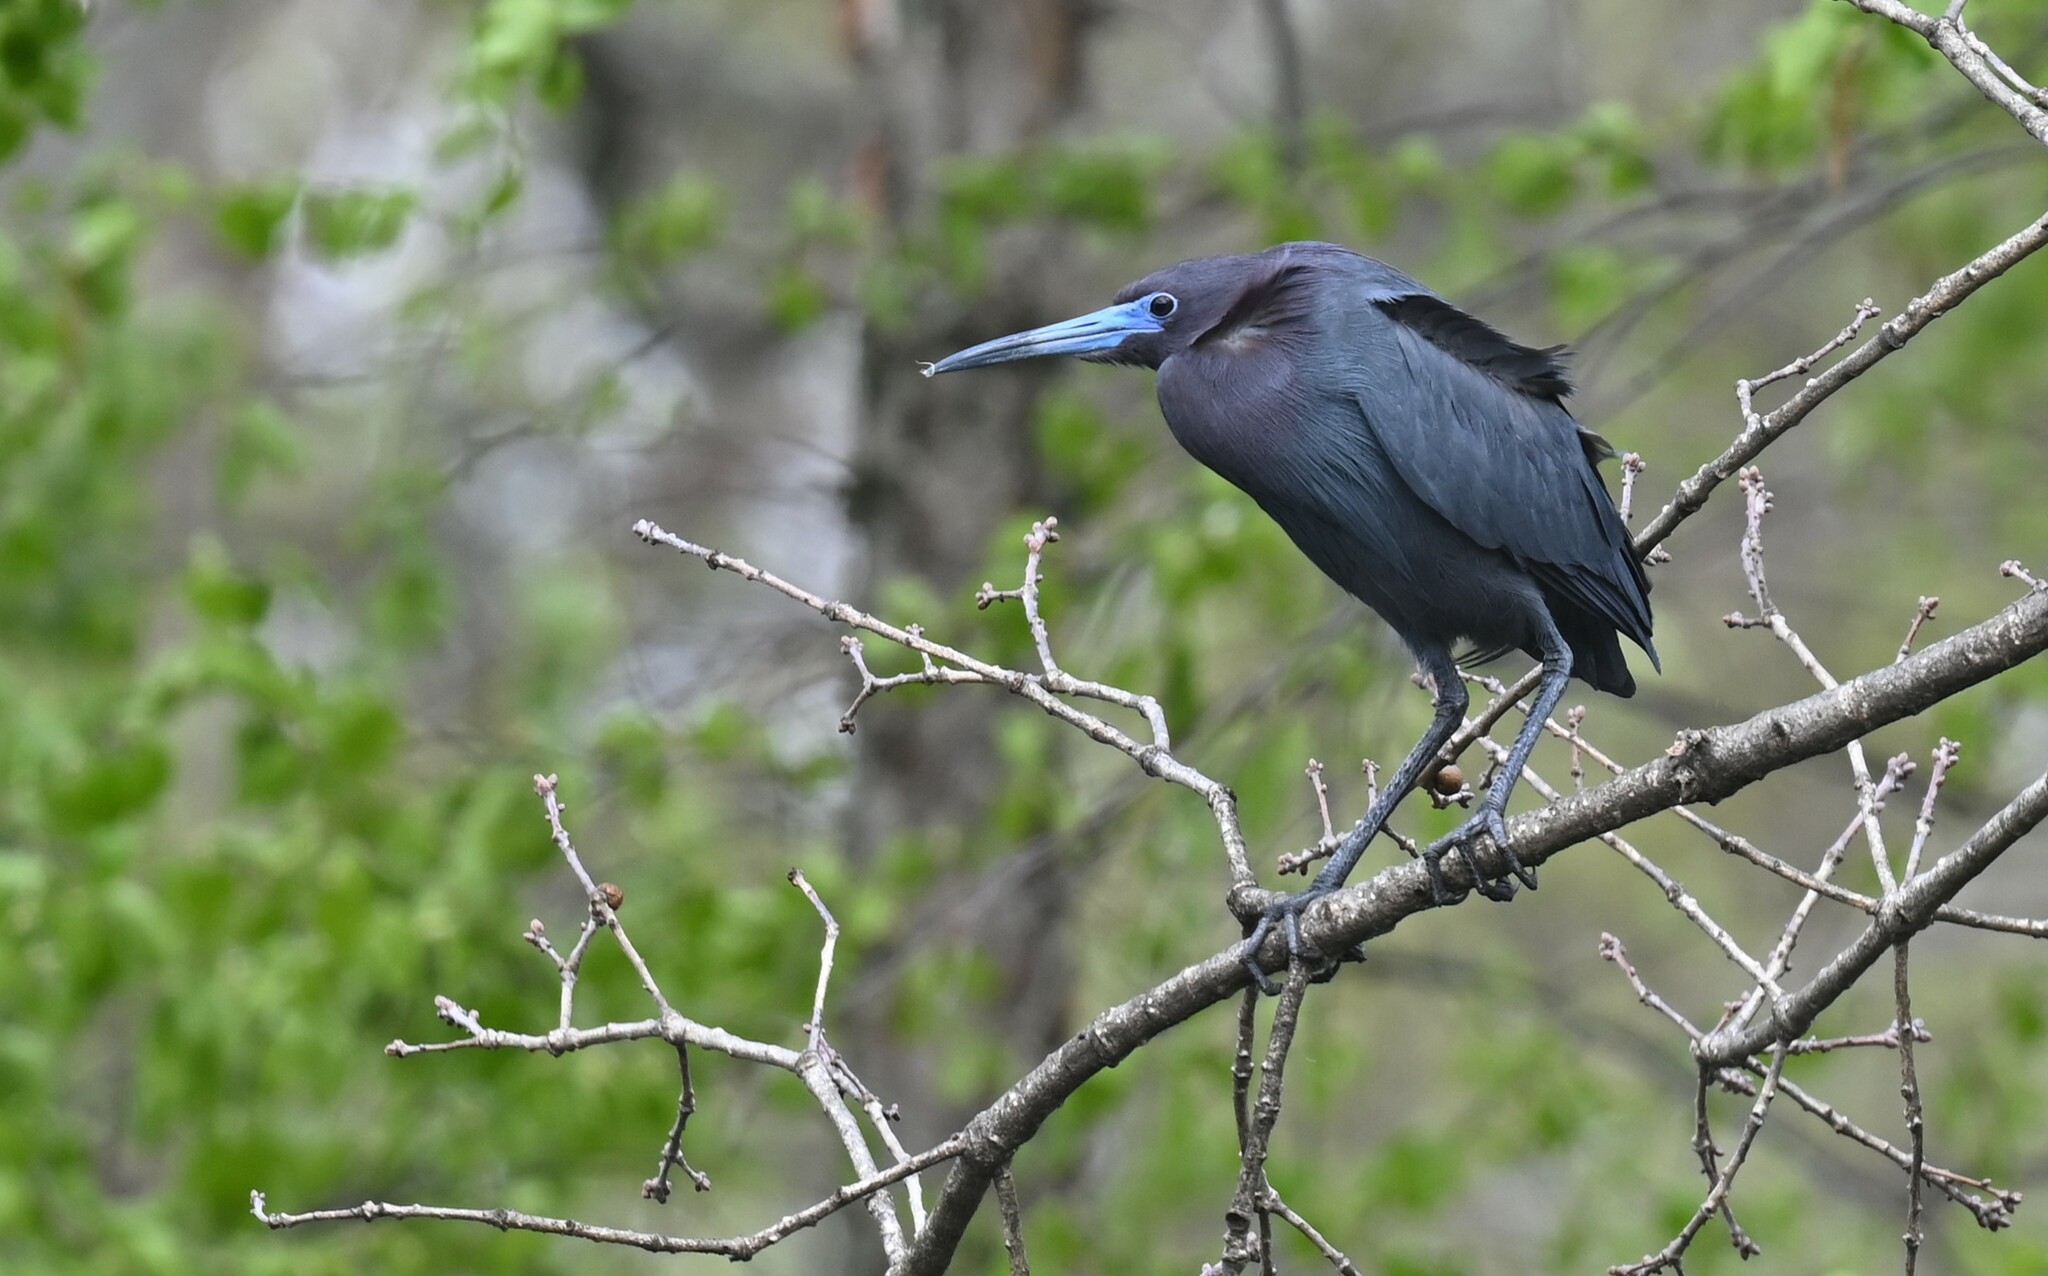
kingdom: Animalia
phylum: Chordata
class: Aves
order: Pelecaniformes
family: Ardeidae
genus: Egretta
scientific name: Egretta caerulea
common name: Little blue heron
